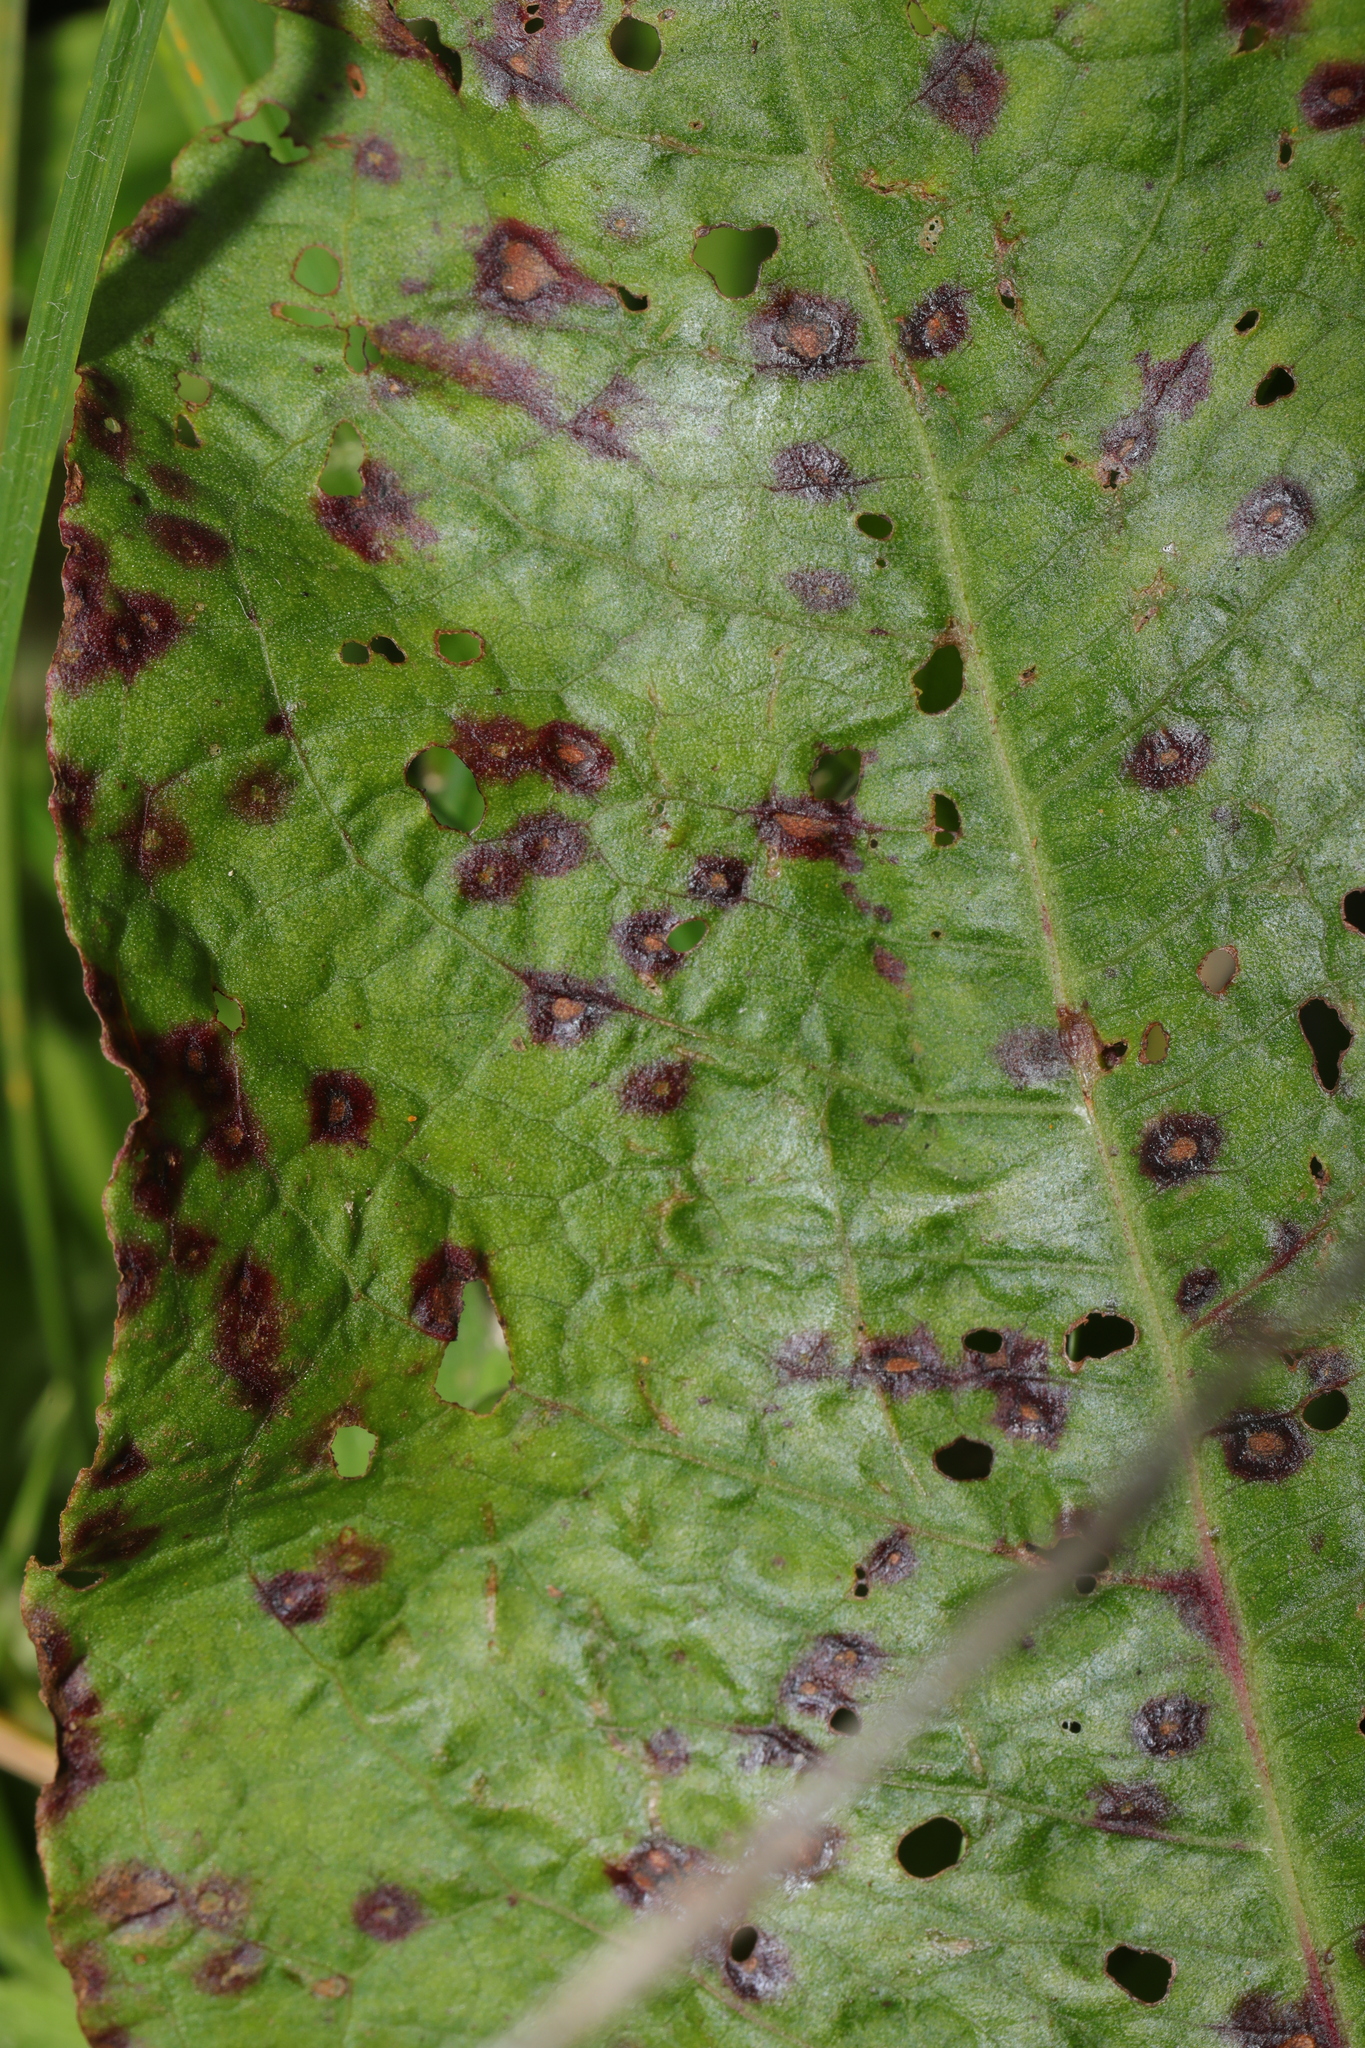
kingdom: Fungi
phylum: Ascomycota
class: Dothideomycetes
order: Mycosphaerellales
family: Mycosphaerellaceae
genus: Ramularia
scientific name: Ramularia rubella
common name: Red dock spot
